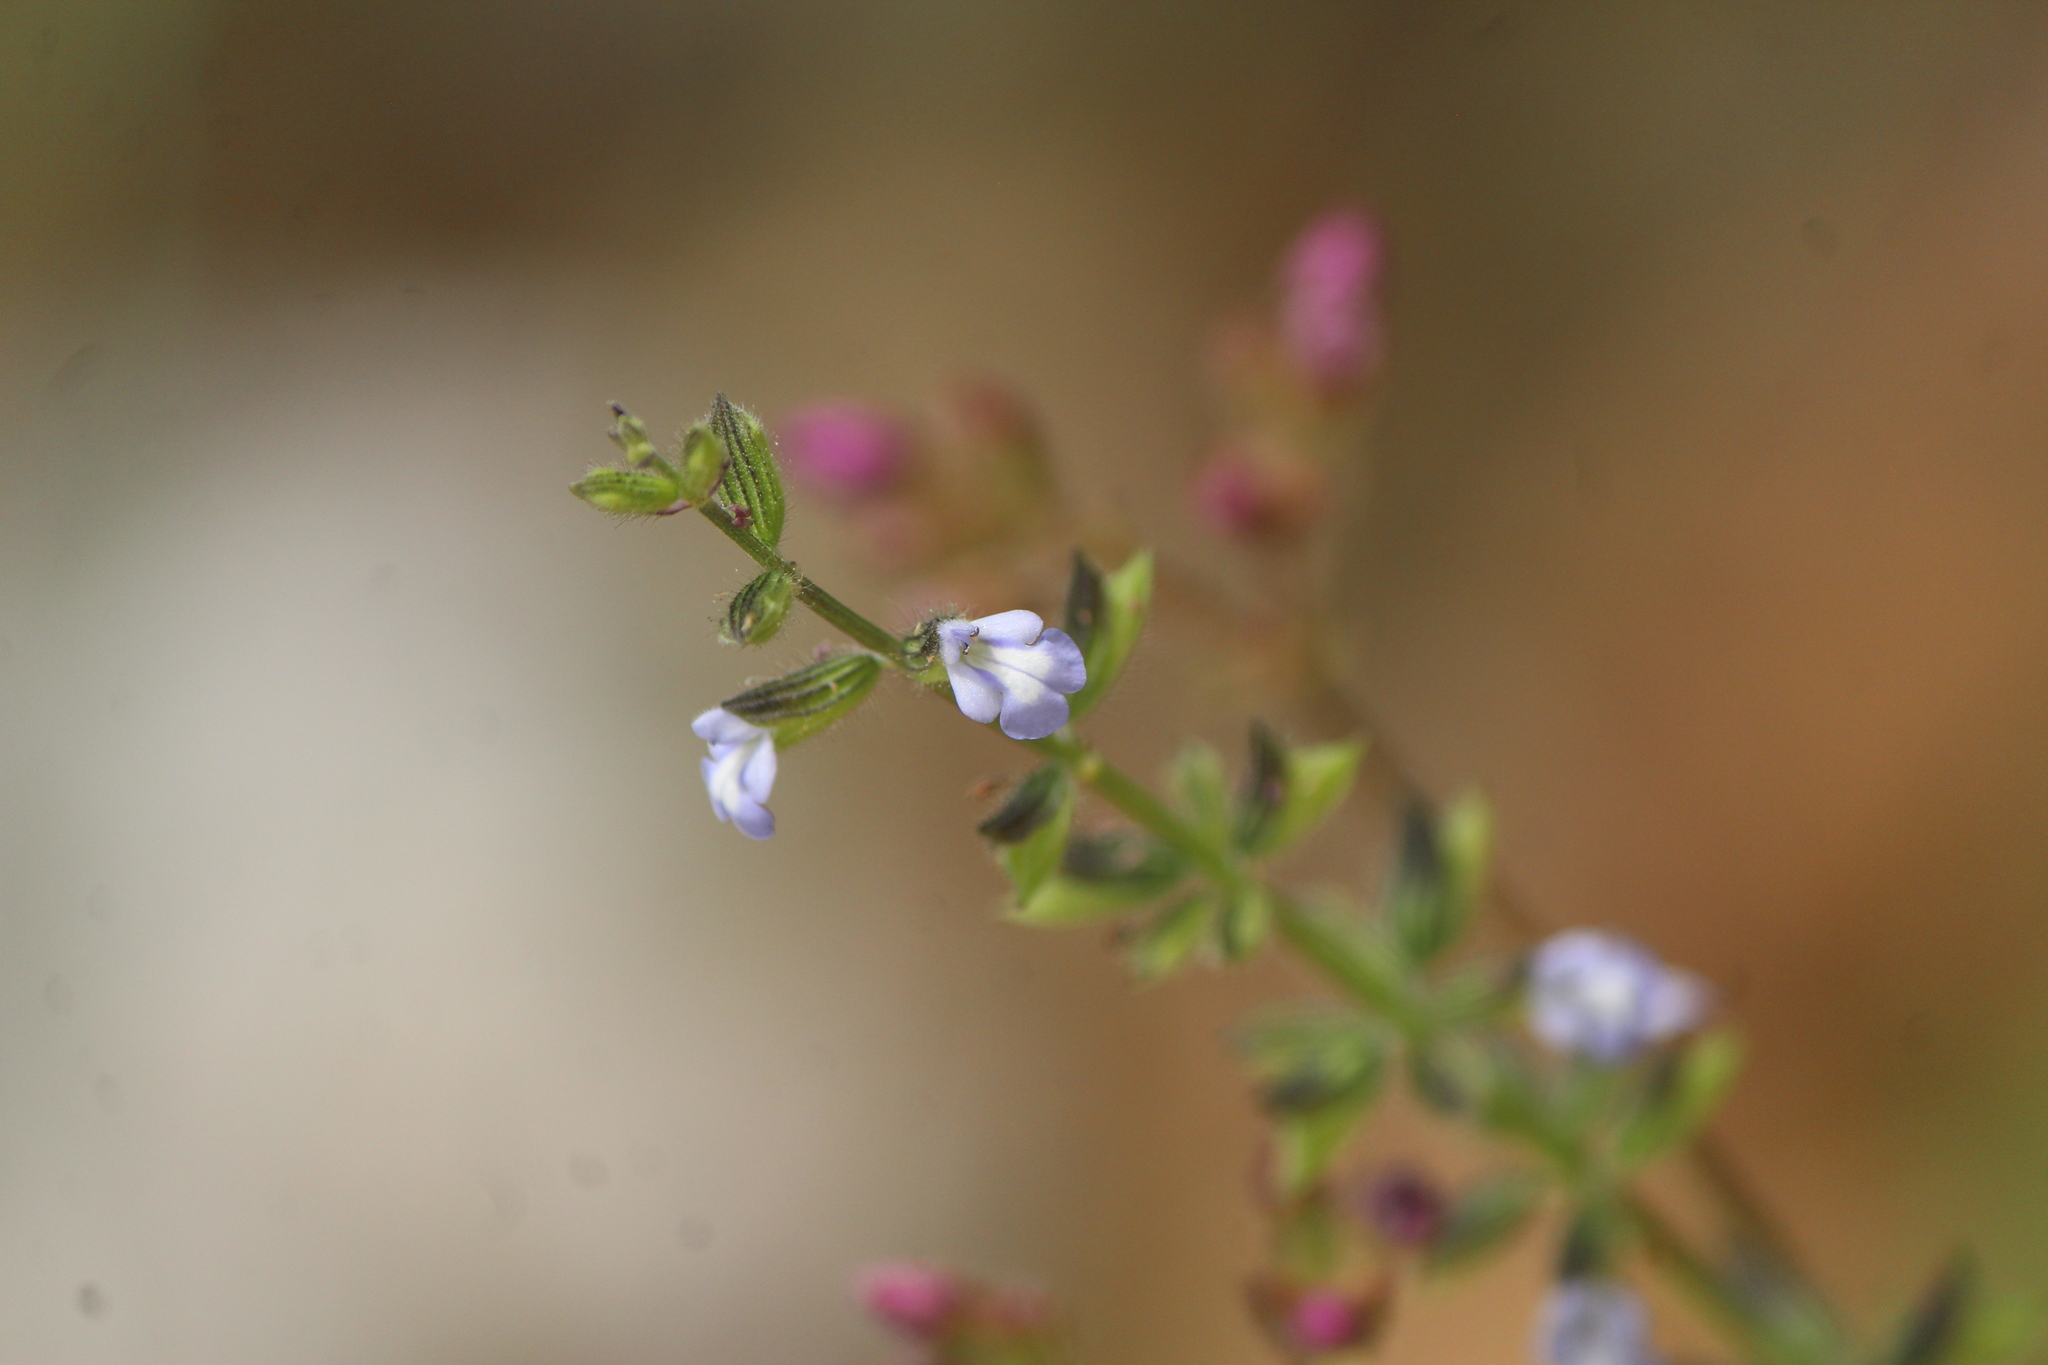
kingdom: Plantae
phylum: Tracheophyta
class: Magnoliopsida
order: Lamiales
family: Lamiaceae
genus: Salvia
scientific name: Salvia podadena
